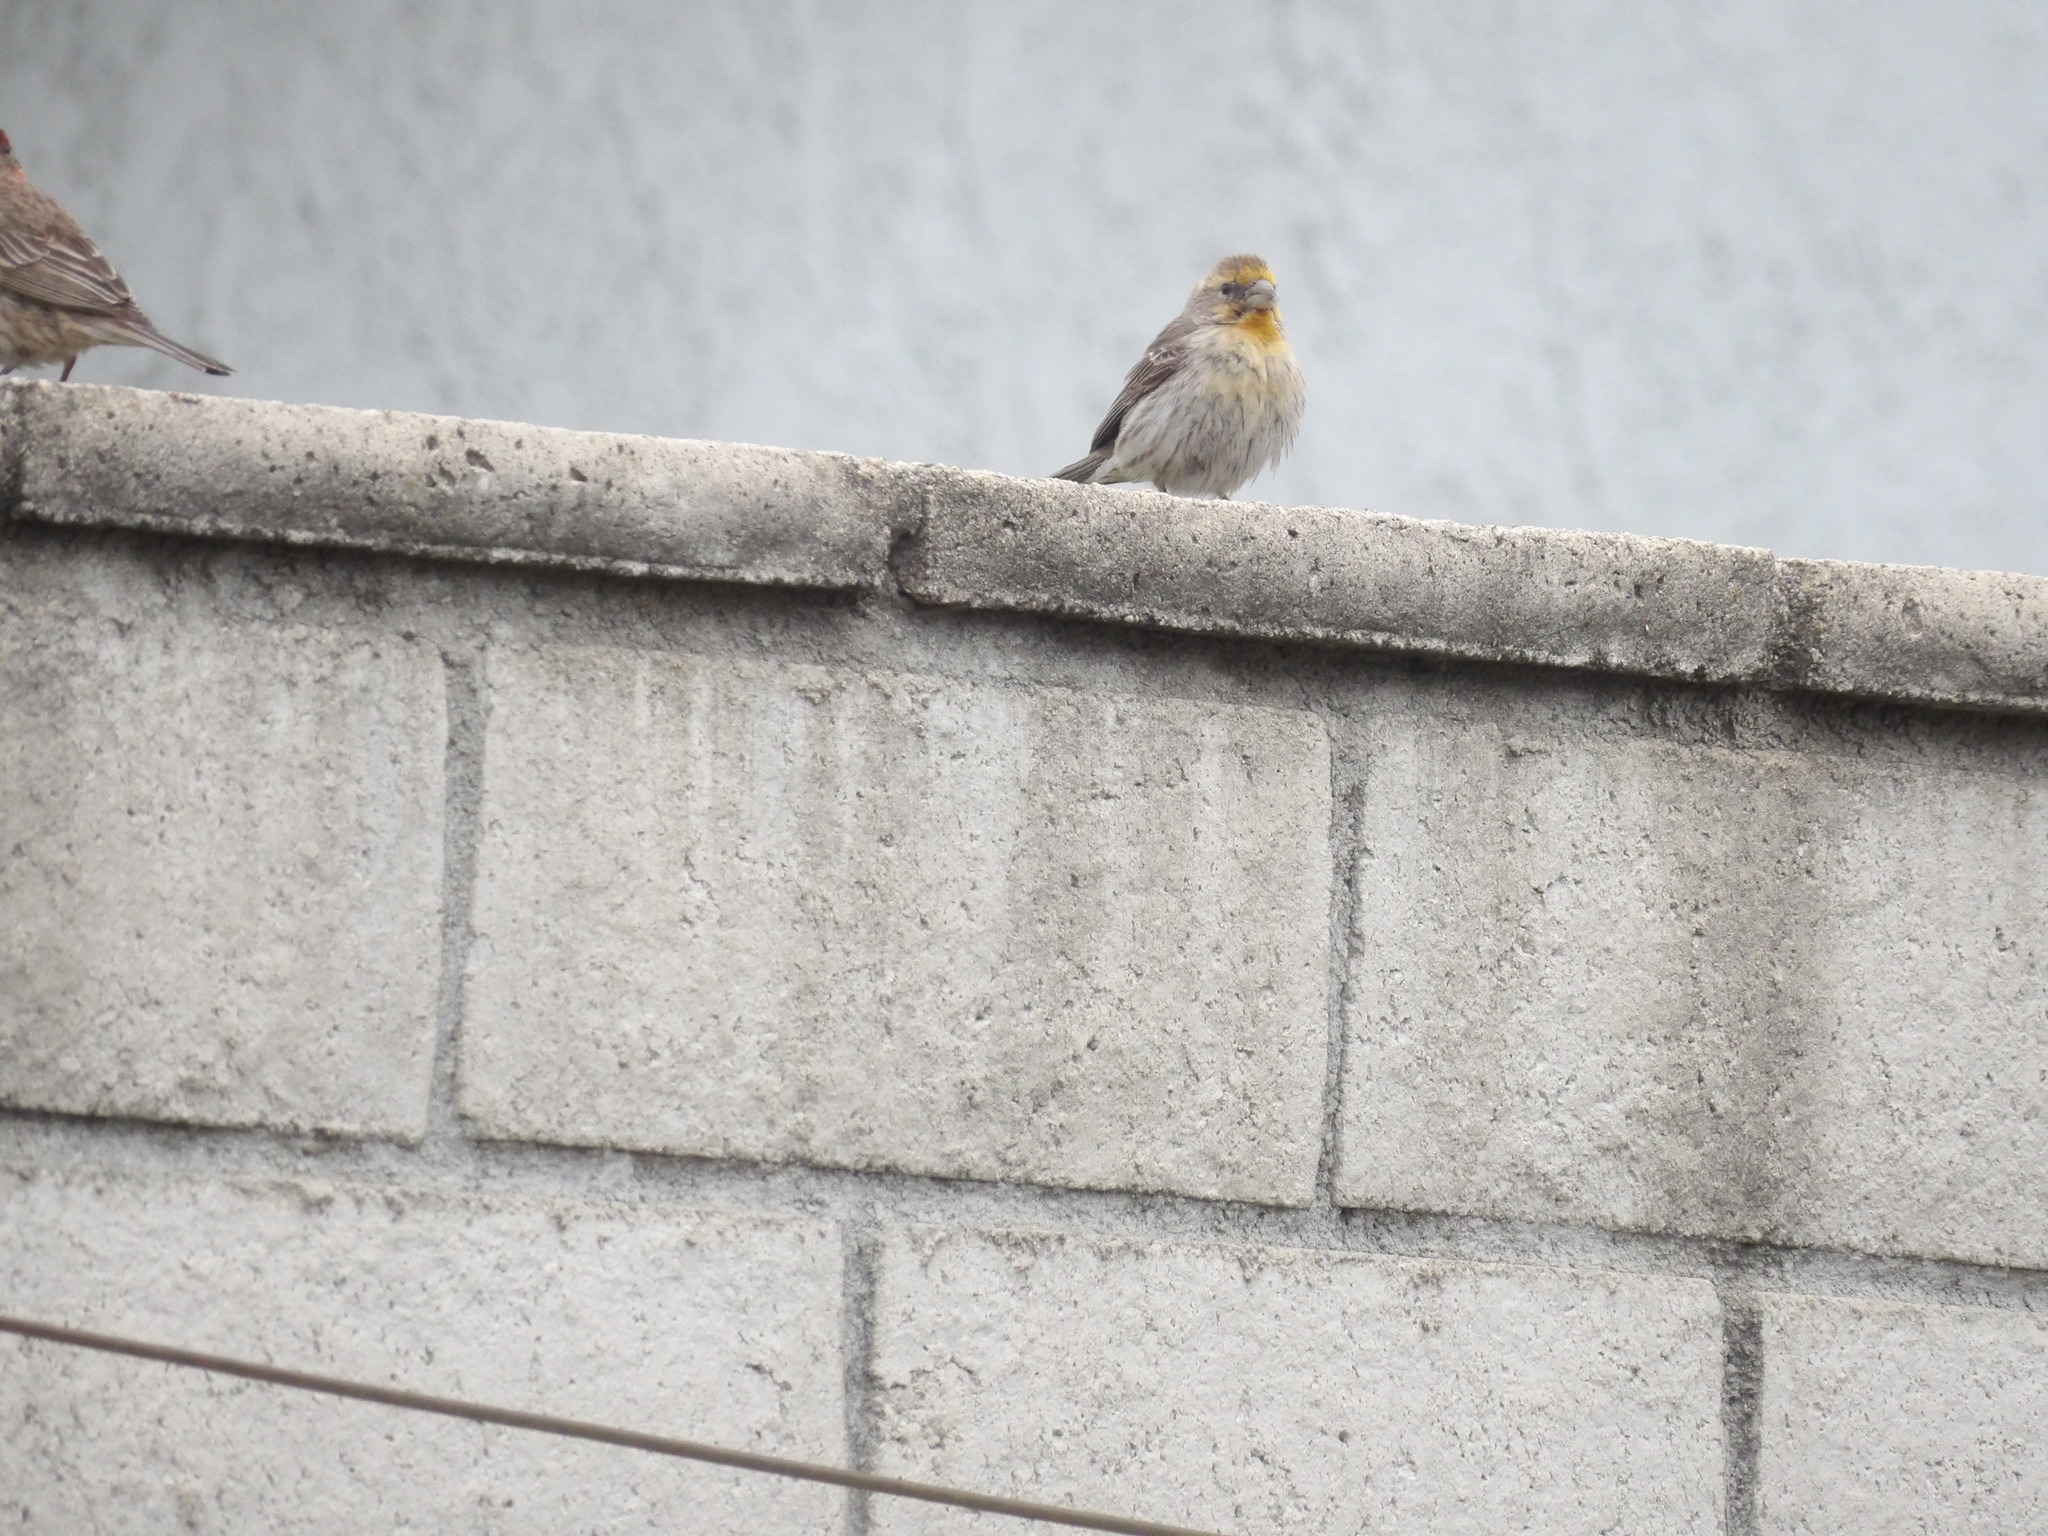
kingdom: Animalia
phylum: Chordata
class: Aves
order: Passeriformes
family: Fringillidae
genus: Haemorhous
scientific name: Haemorhous mexicanus
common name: House finch
